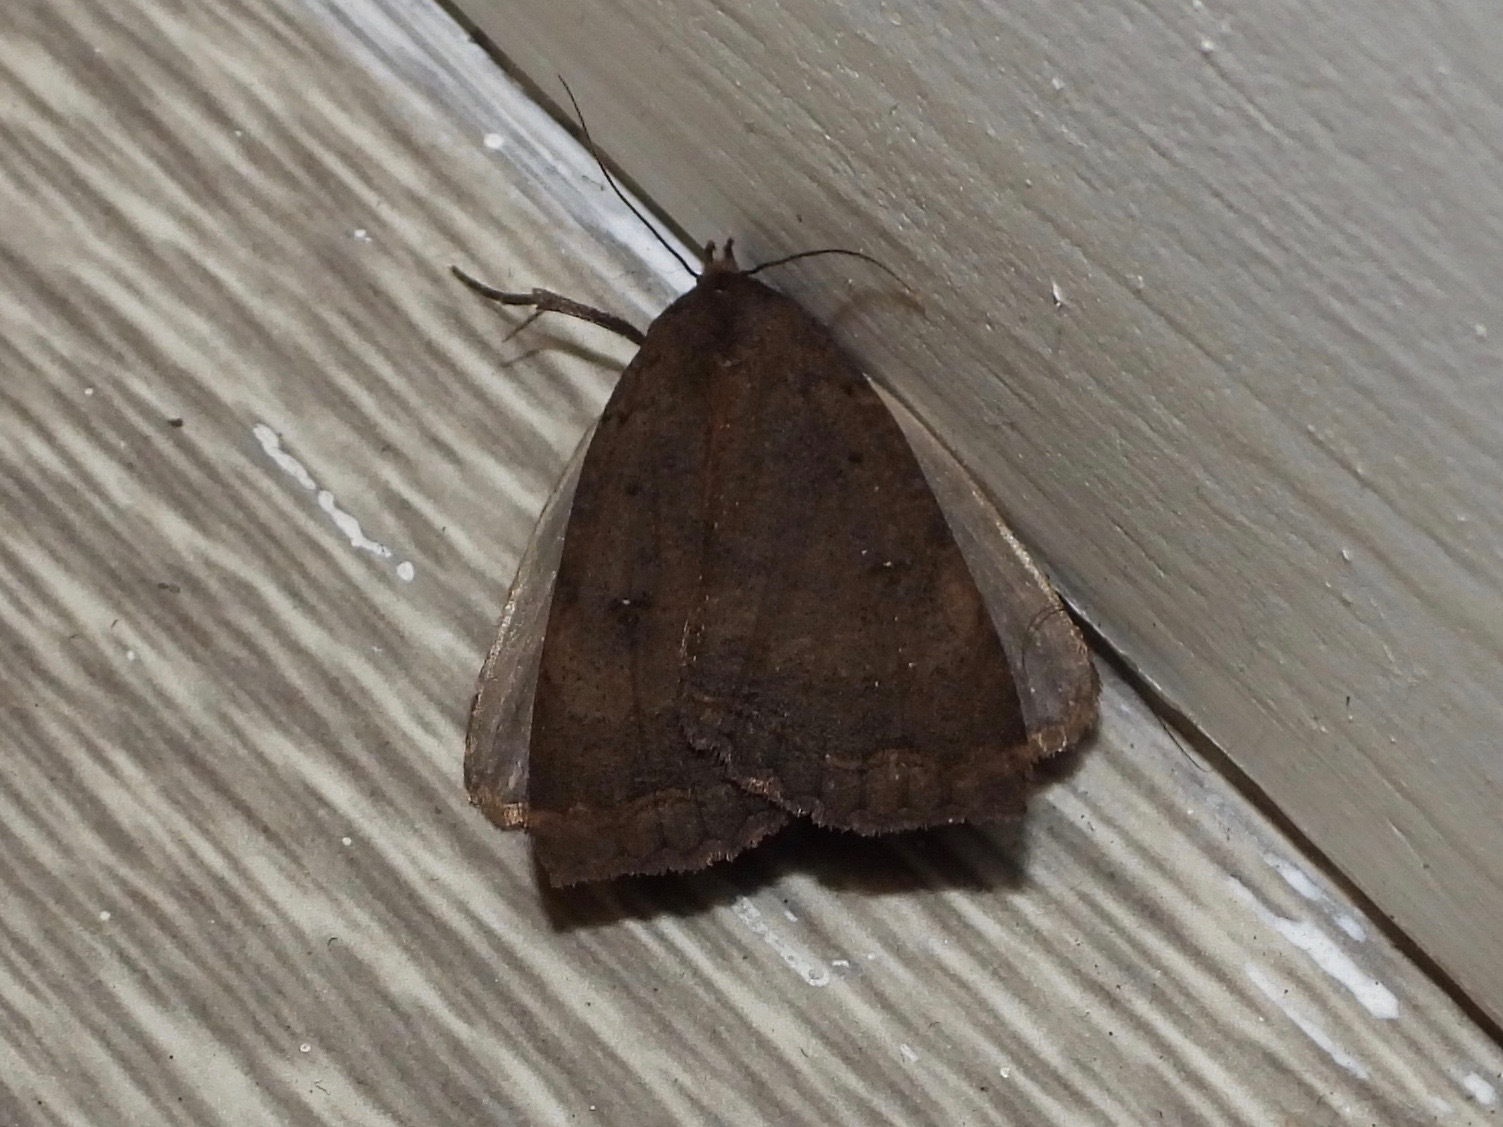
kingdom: Animalia
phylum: Arthropoda
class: Insecta
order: Lepidoptera
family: Erebidae
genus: Pyrgion
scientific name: Pyrgion repanda
